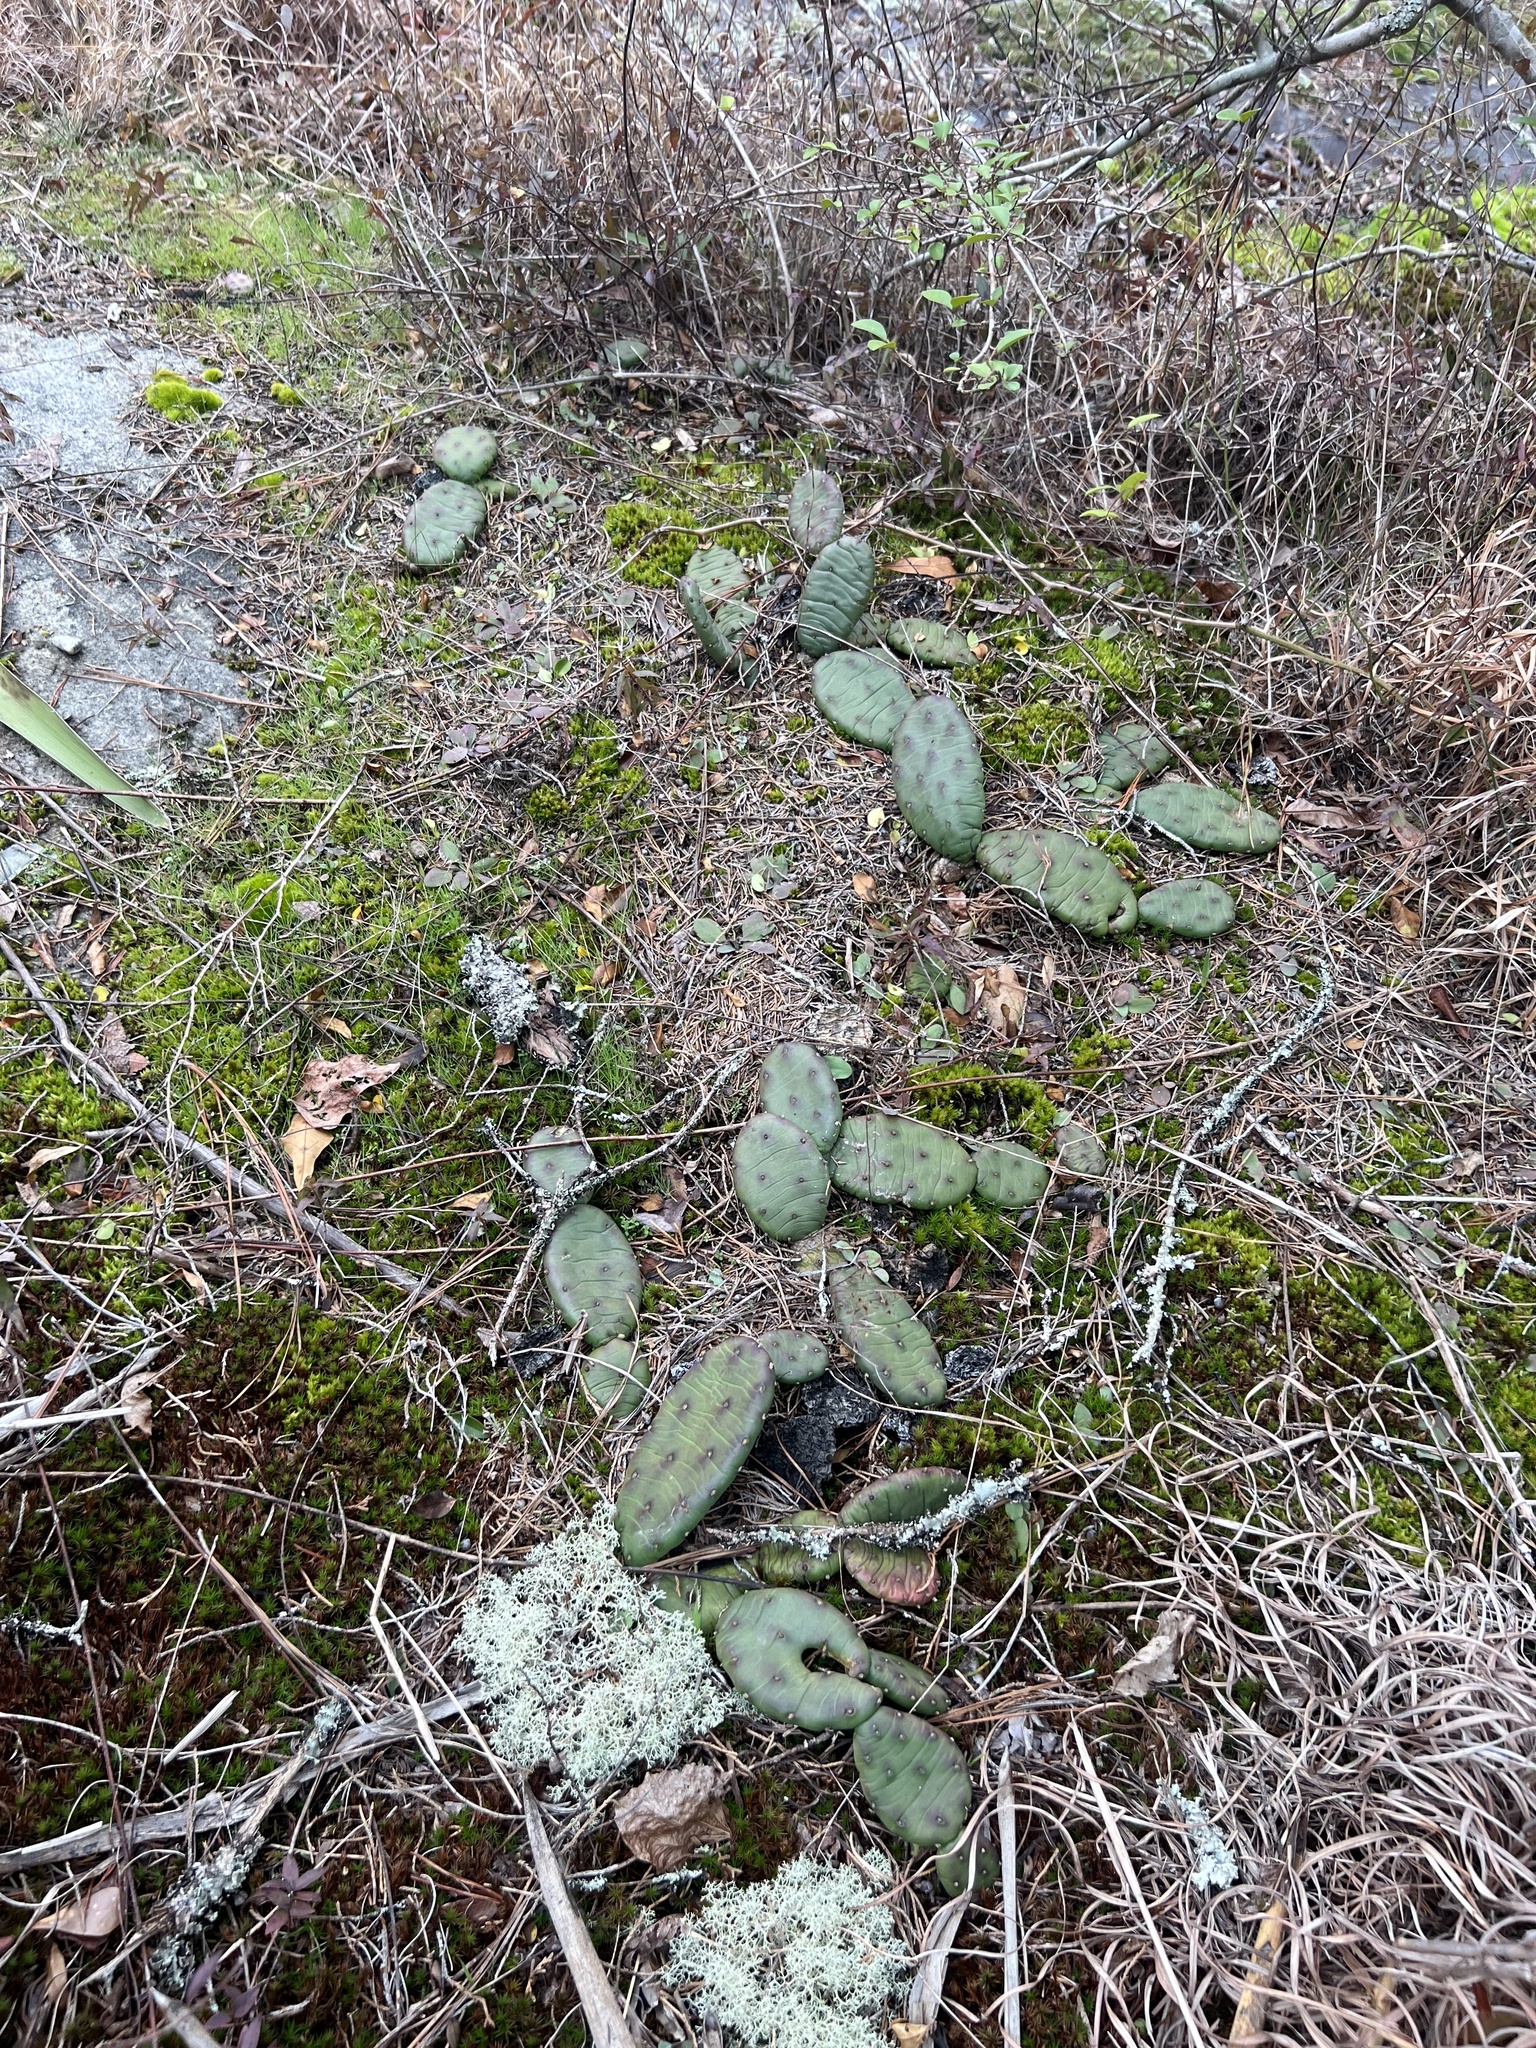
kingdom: Plantae
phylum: Tracheophyta
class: Magnoliopsida
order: Caryophyllales
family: Cactaceae
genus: Opuntia
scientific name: Opuntia mesacantha
